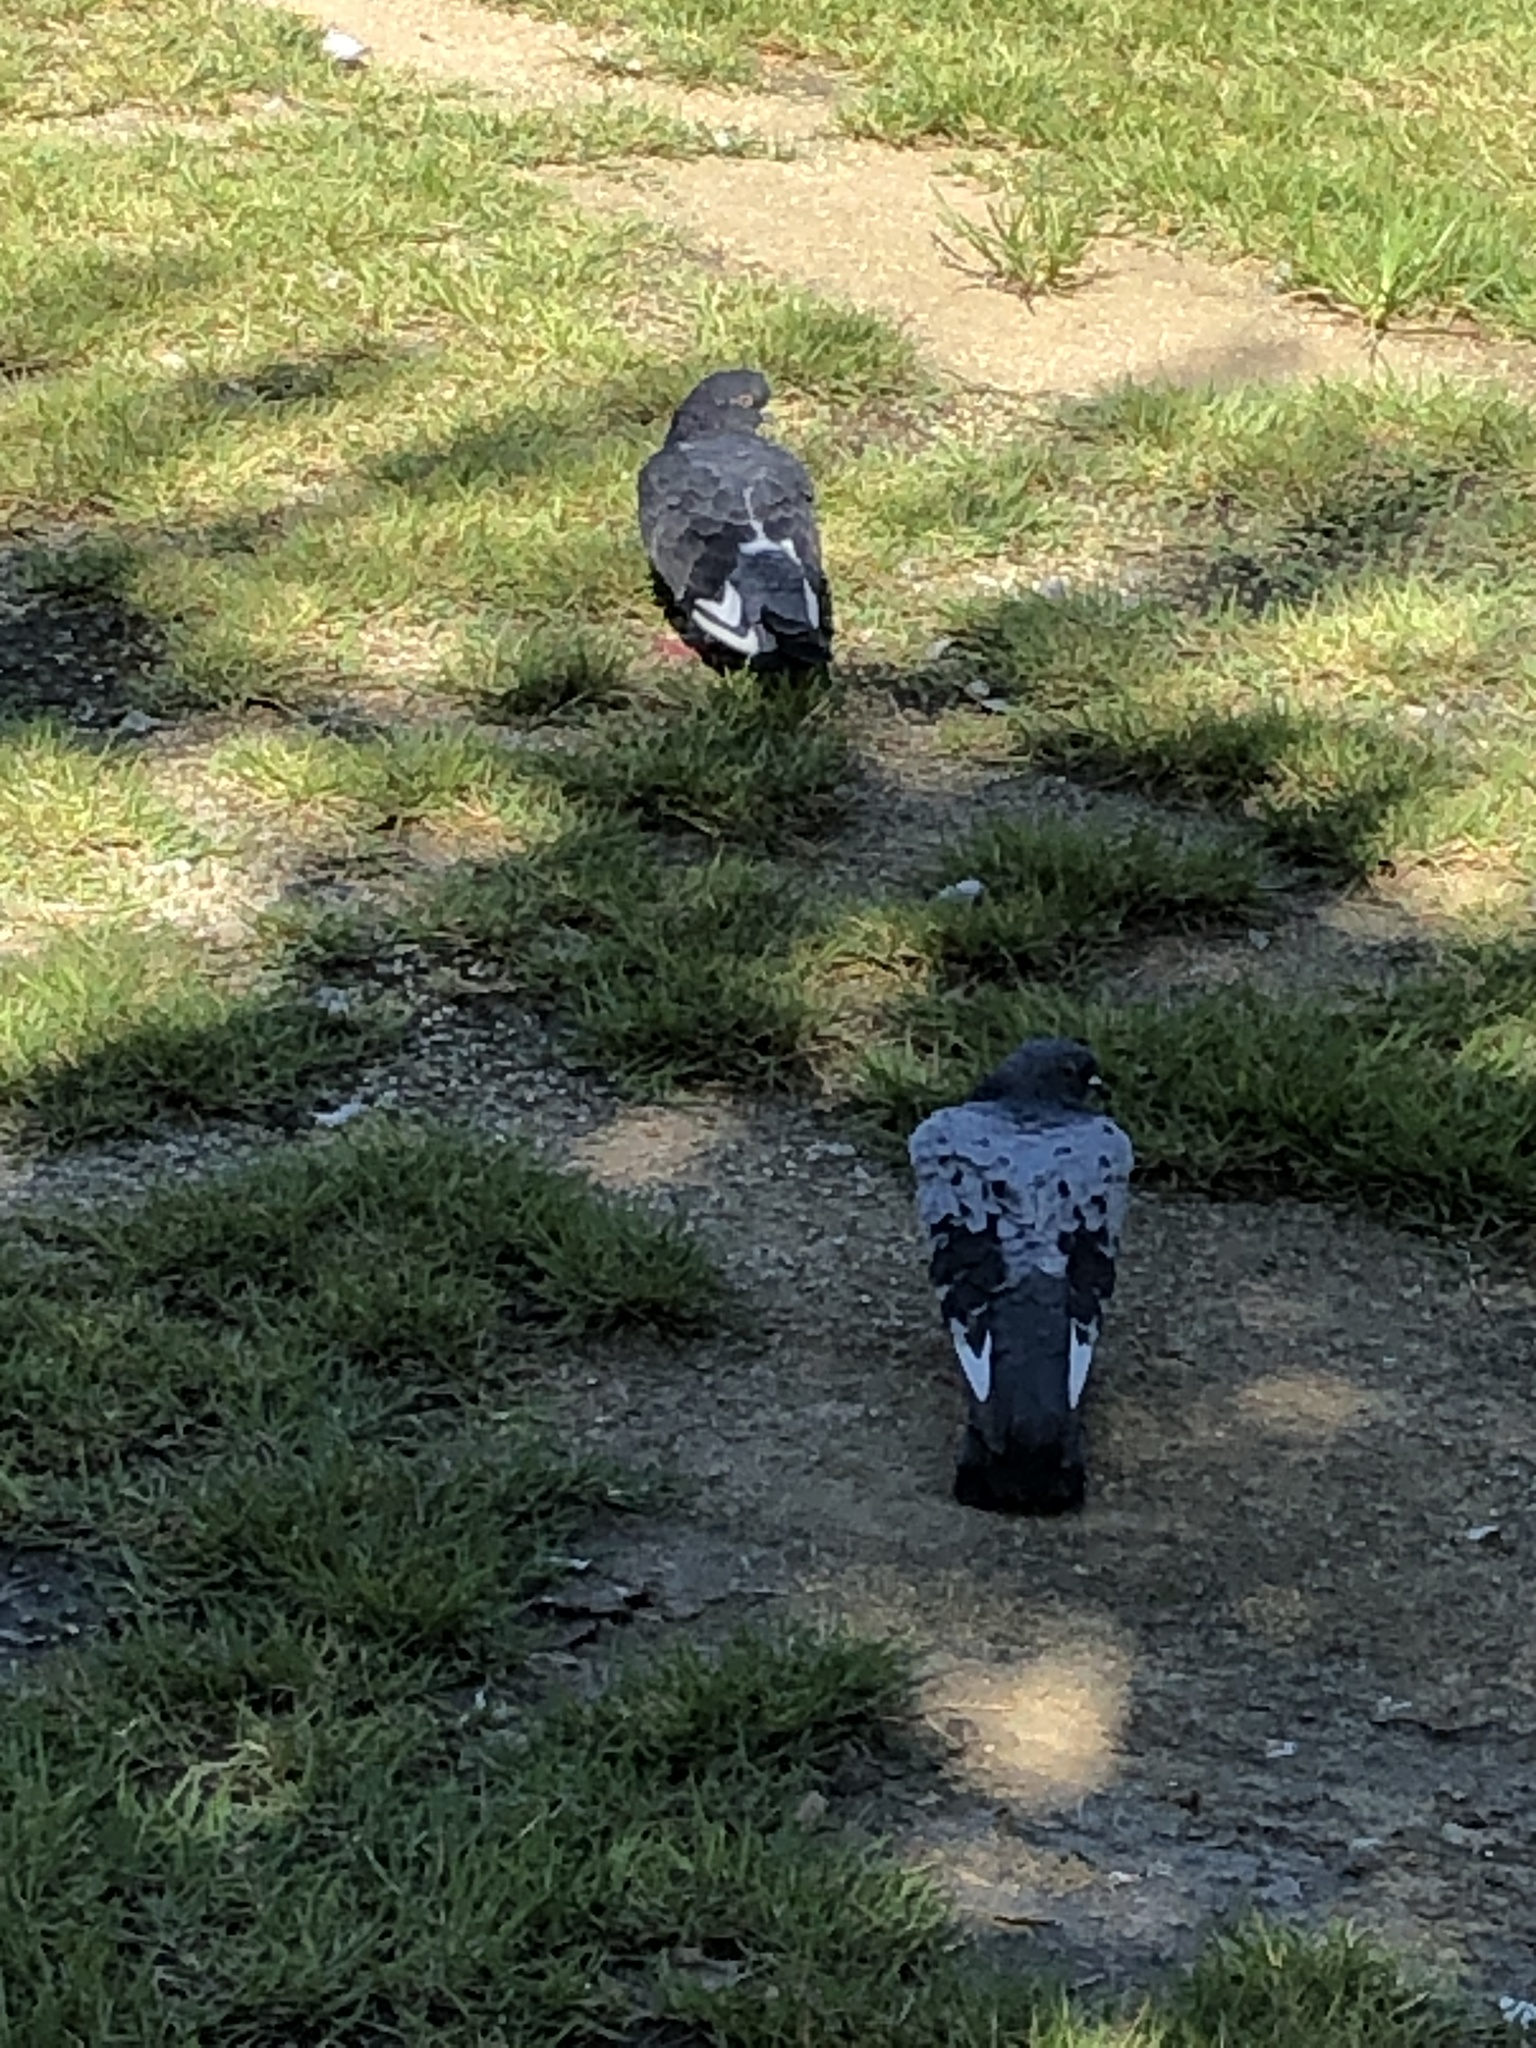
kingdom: Animalia
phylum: Chordata
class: Aves
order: Columbiformes
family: Columbidae
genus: Columba
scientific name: Columba livia
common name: Rock pigeon
